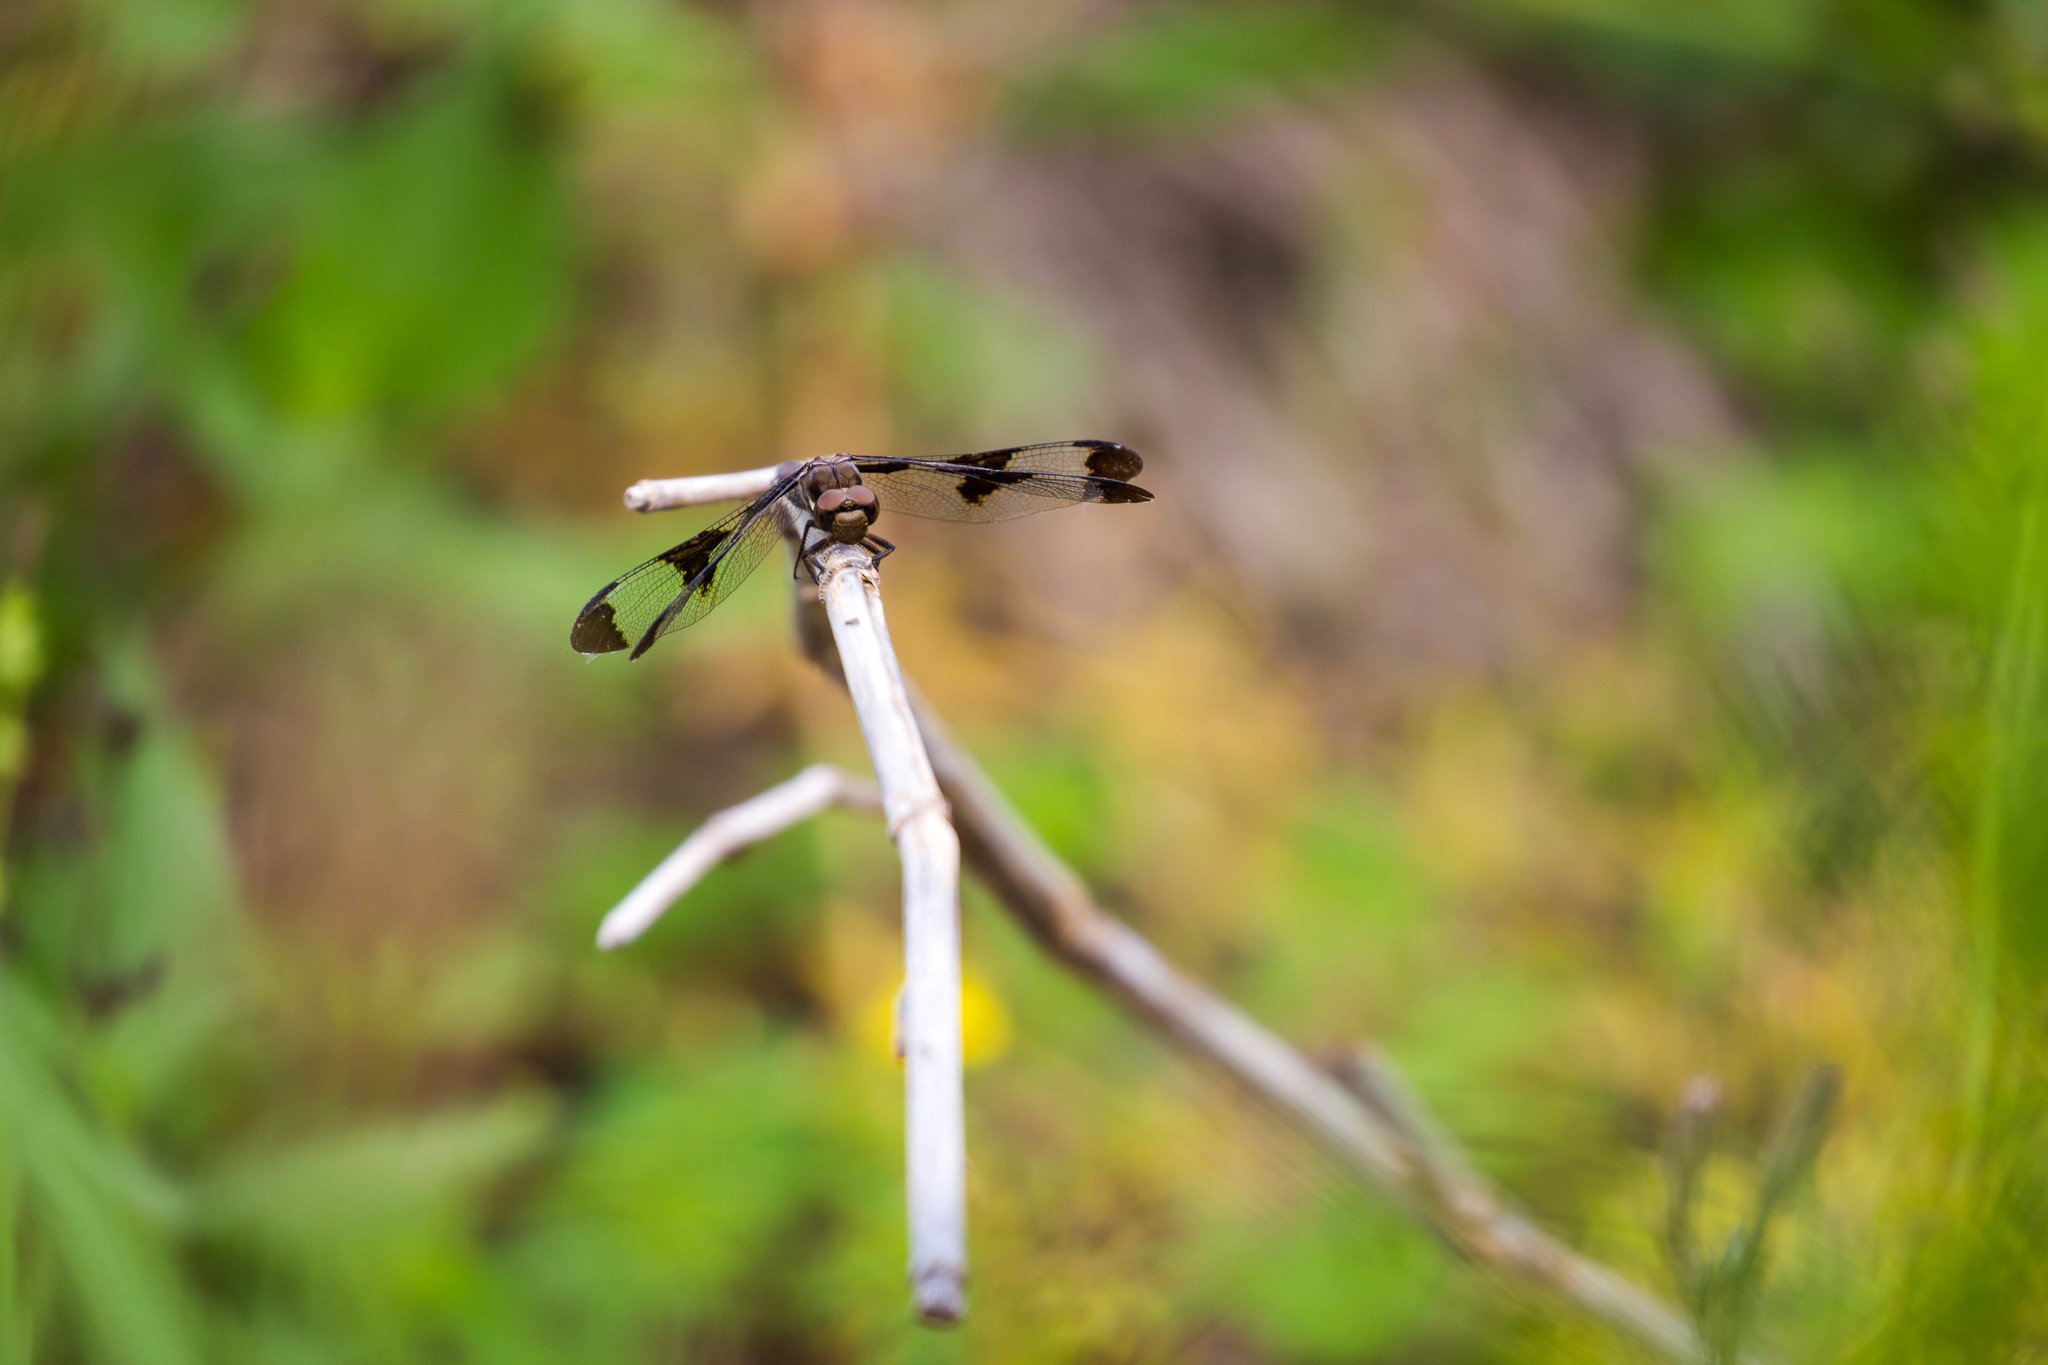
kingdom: Animalia
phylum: Arthropoda
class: Insecta
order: Odonata
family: Libellulidae
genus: Plathemis
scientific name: Plathemis lydia
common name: Common whitetail
